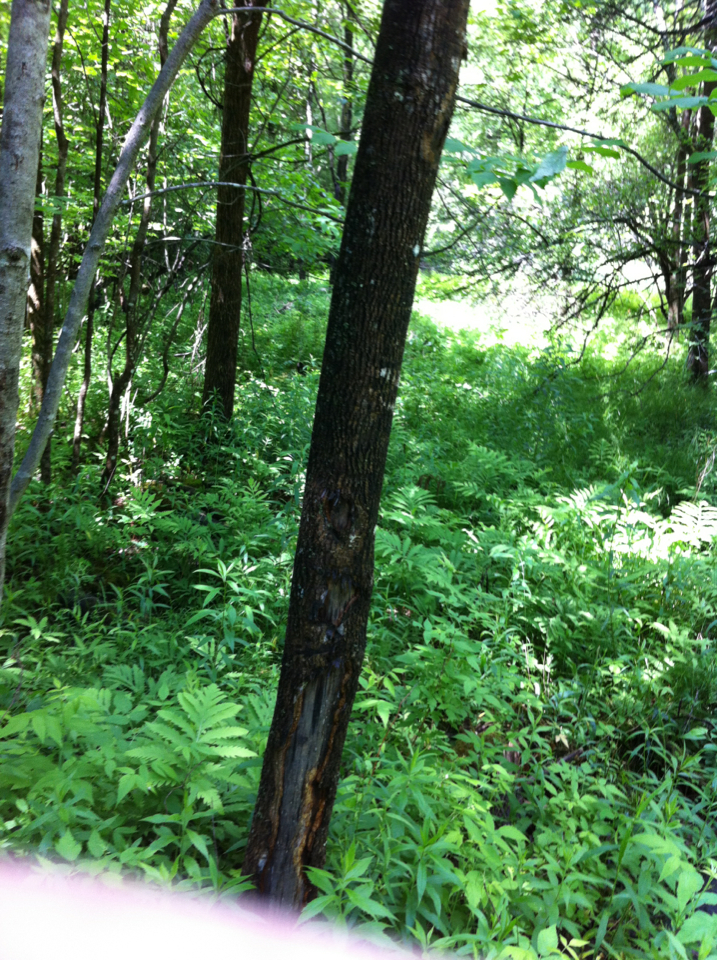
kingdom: Plantae
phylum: Tracheophyta
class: Magnoliopsida
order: Lamiales
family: Oleaceae
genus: Fraxinus
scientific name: Fraxinus americana
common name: White ash
